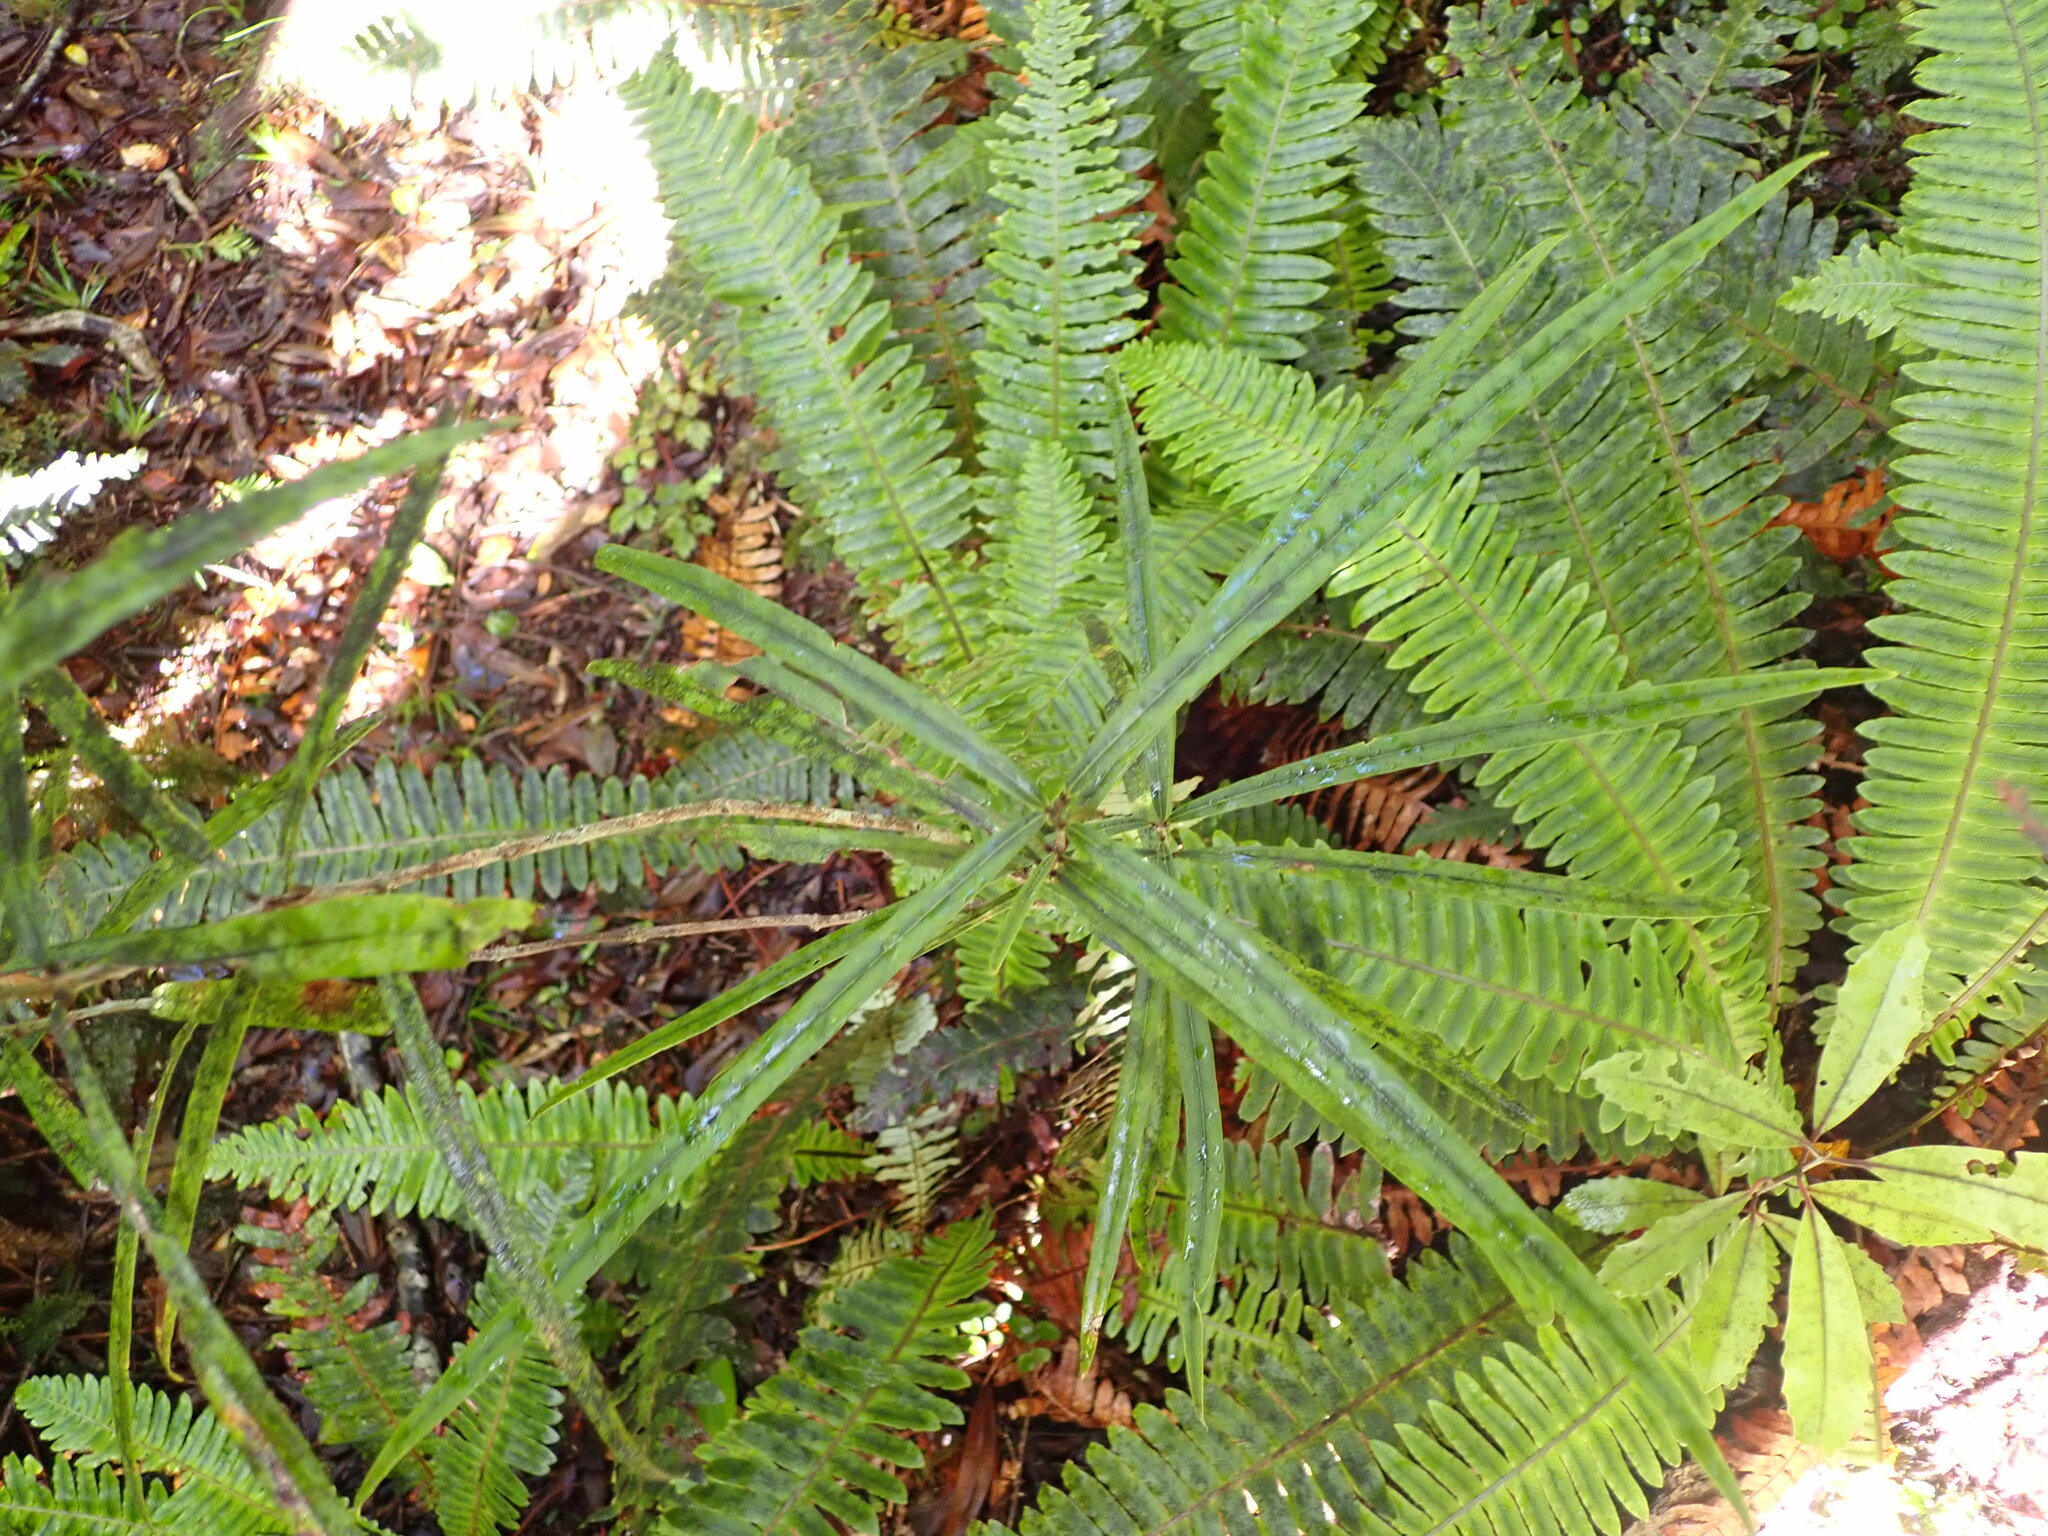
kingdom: Plantae
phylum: Tracheophyta
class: Magnoliopsida
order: Lamiales
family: Oleaceae
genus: Nestegis
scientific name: Nestegis cunninghamii
